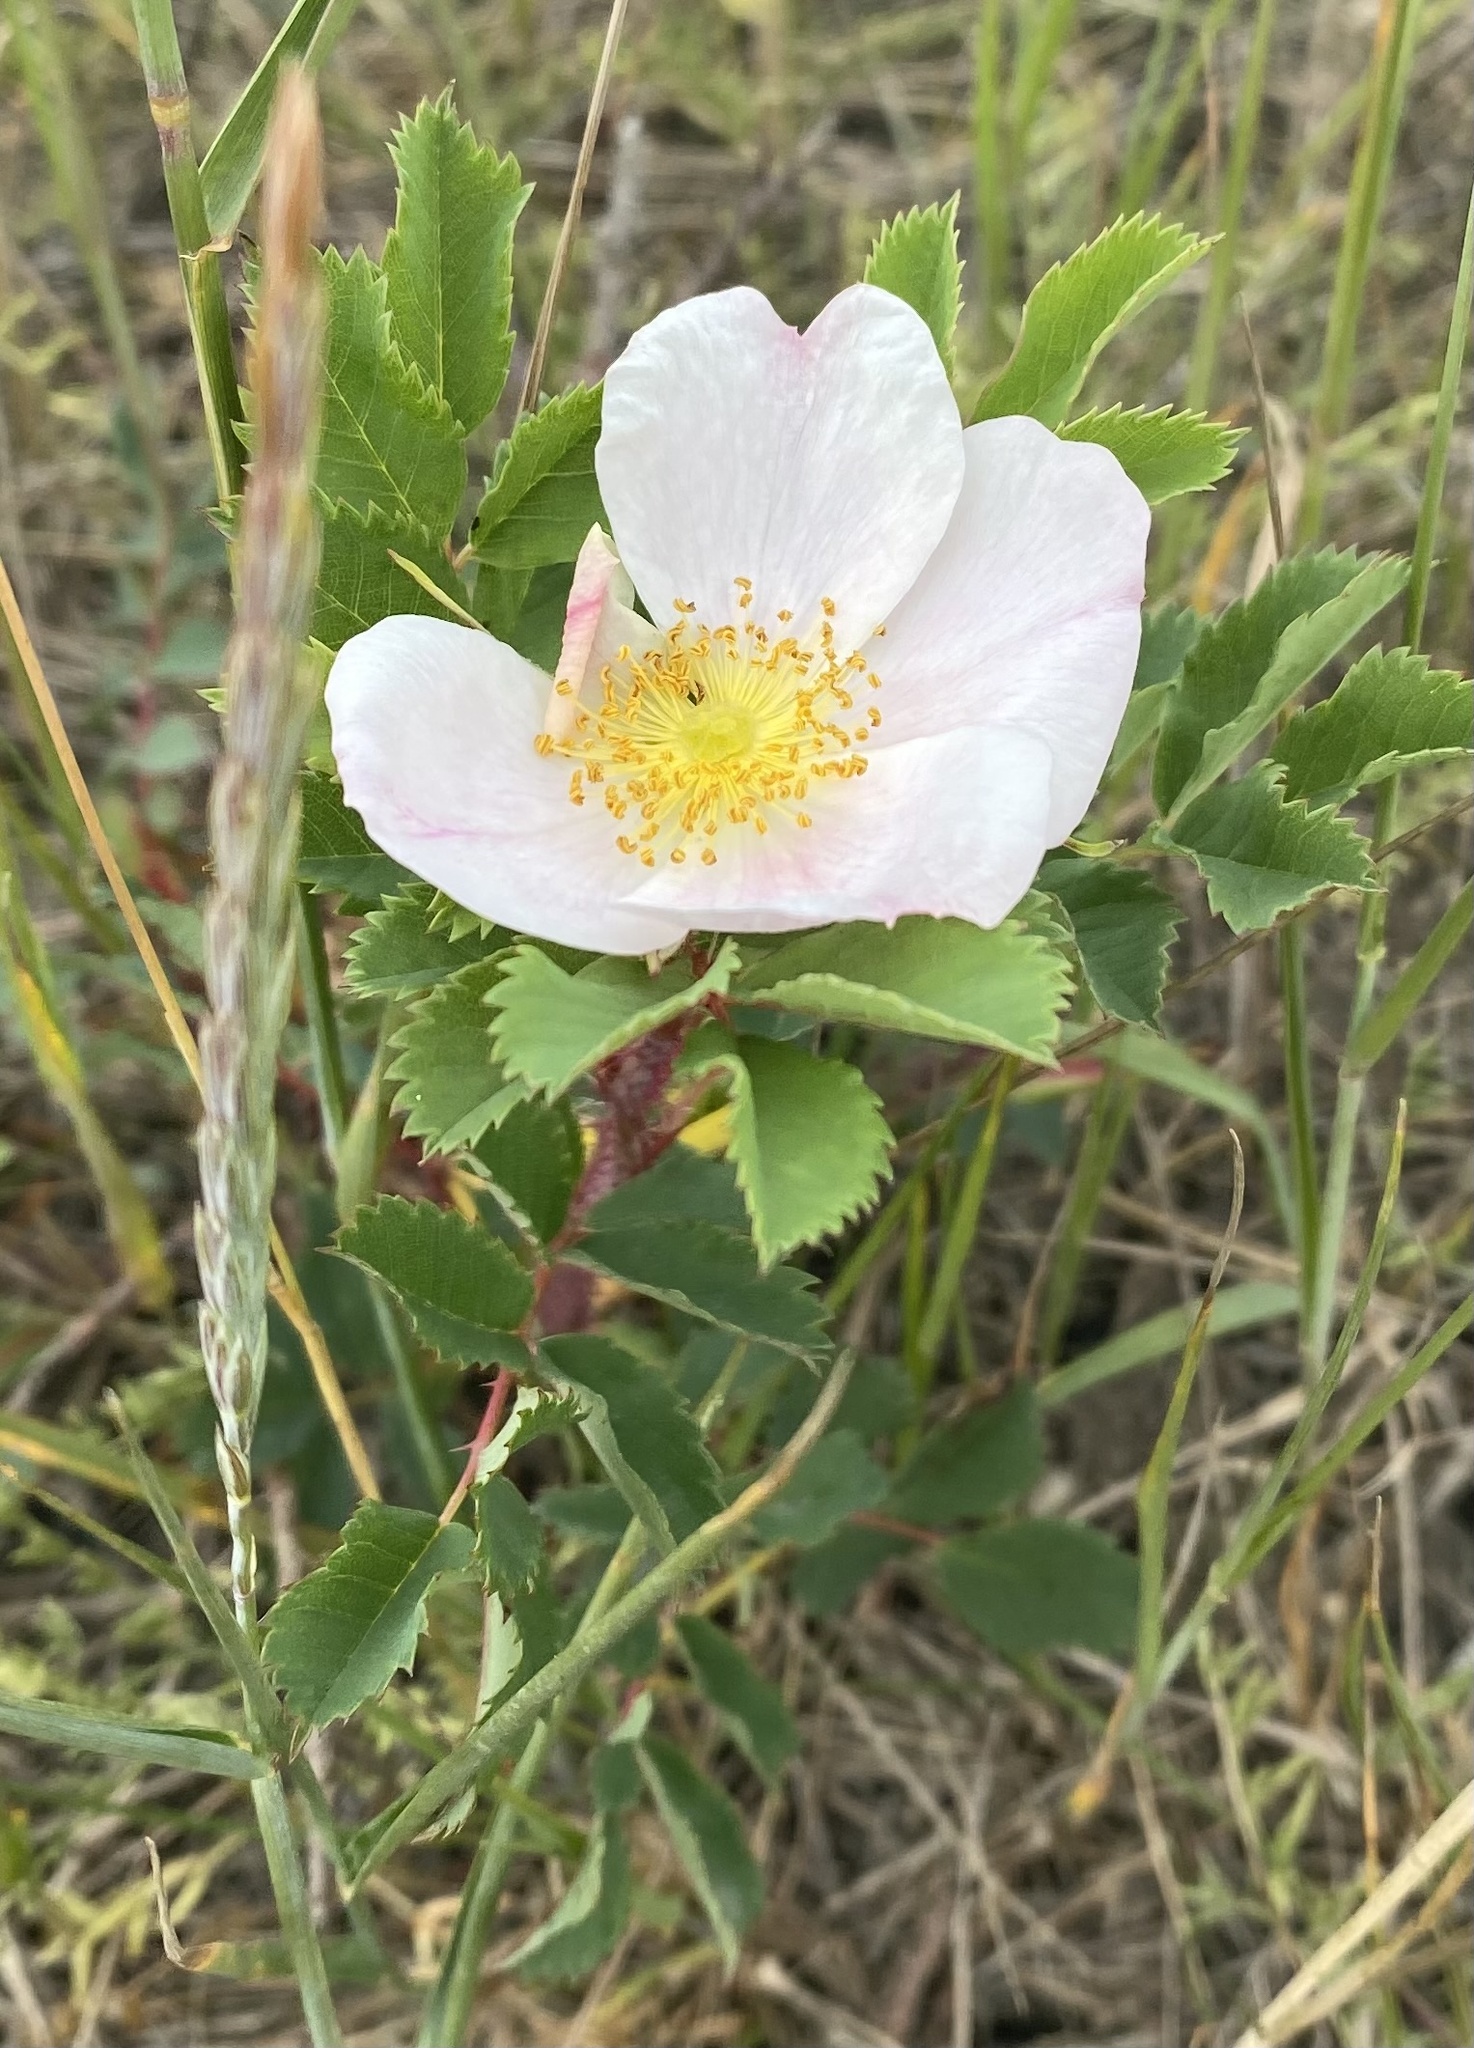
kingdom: Plantae
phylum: Tracheophyta
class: Magnoliopsida
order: Rosales
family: Rosaceae
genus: Rosa
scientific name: Rosa arkansana
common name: Prairie rose
